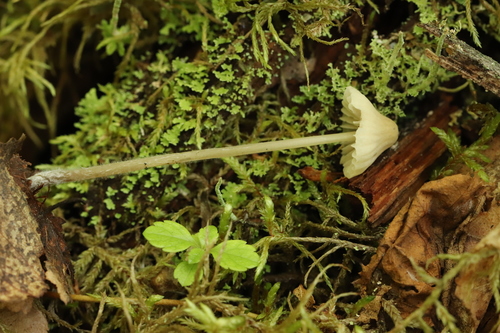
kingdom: Fungi
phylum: Basidiomycota
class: Agaricomycetes
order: Agaricales
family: Mycenaceae
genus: Mycena
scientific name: Mycena
